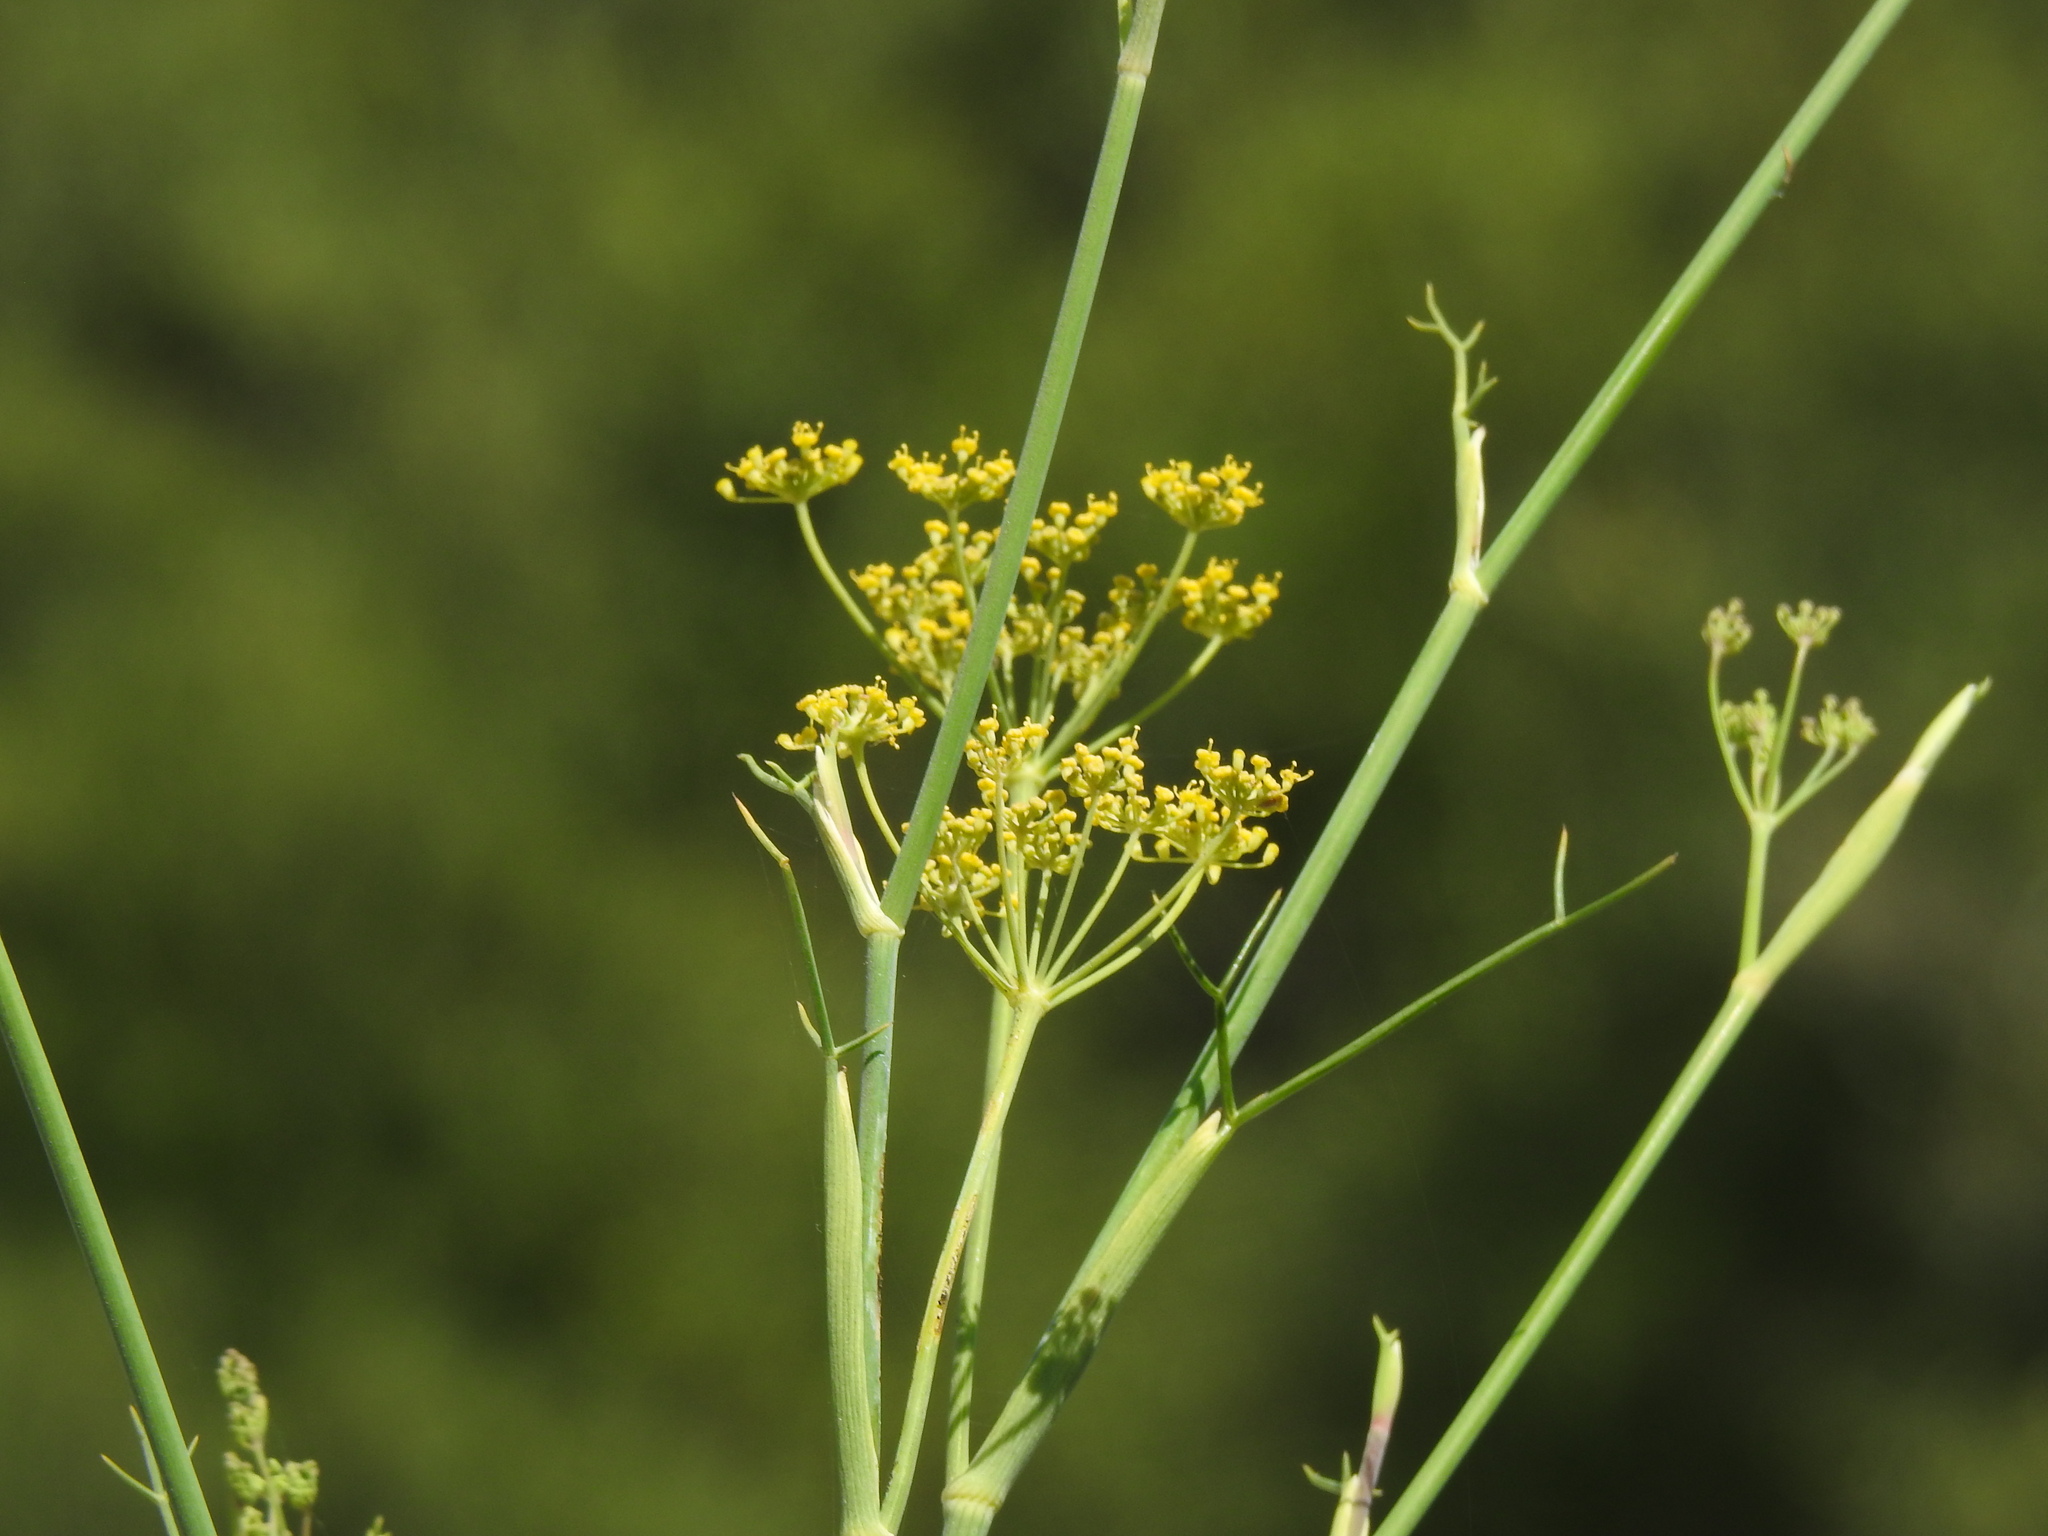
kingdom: Plantae
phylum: Tracheophyta
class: Magnoliopsida
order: Apiales
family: Apiaceae
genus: Foeniculum
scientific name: Foeniculum vulgare
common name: Fennel
